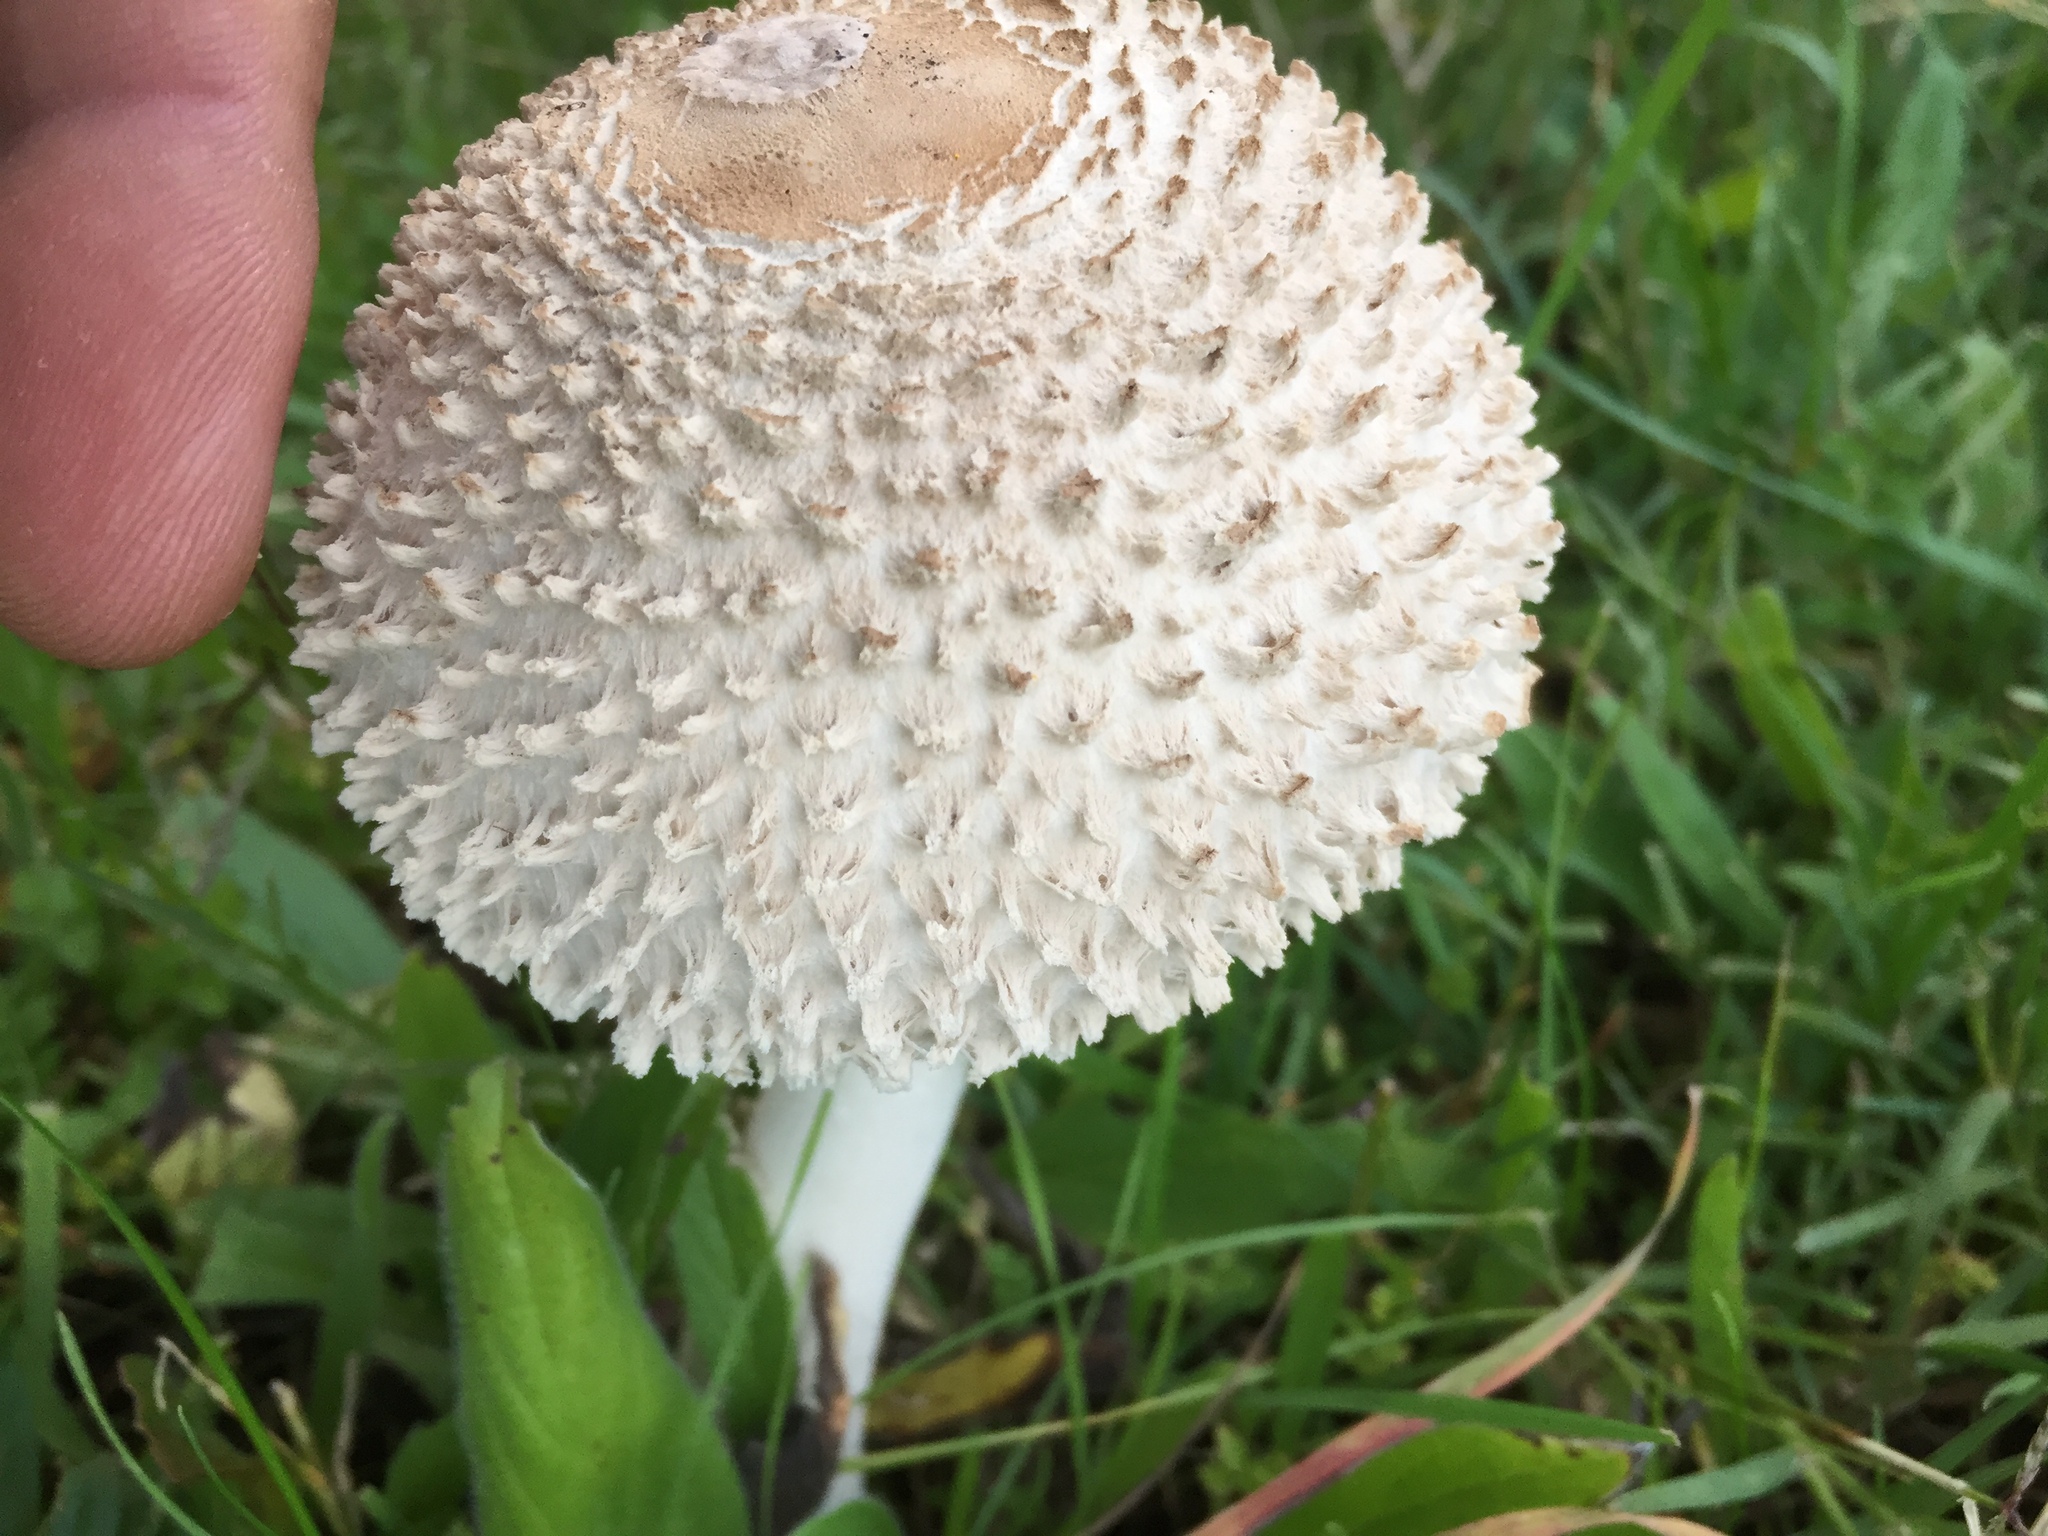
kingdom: Fungi
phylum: Basidiomycota
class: Agaricomycetes
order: Agaricales
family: Agaricaceae
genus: Macrolepiota
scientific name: Macrolepiota zeyheri
